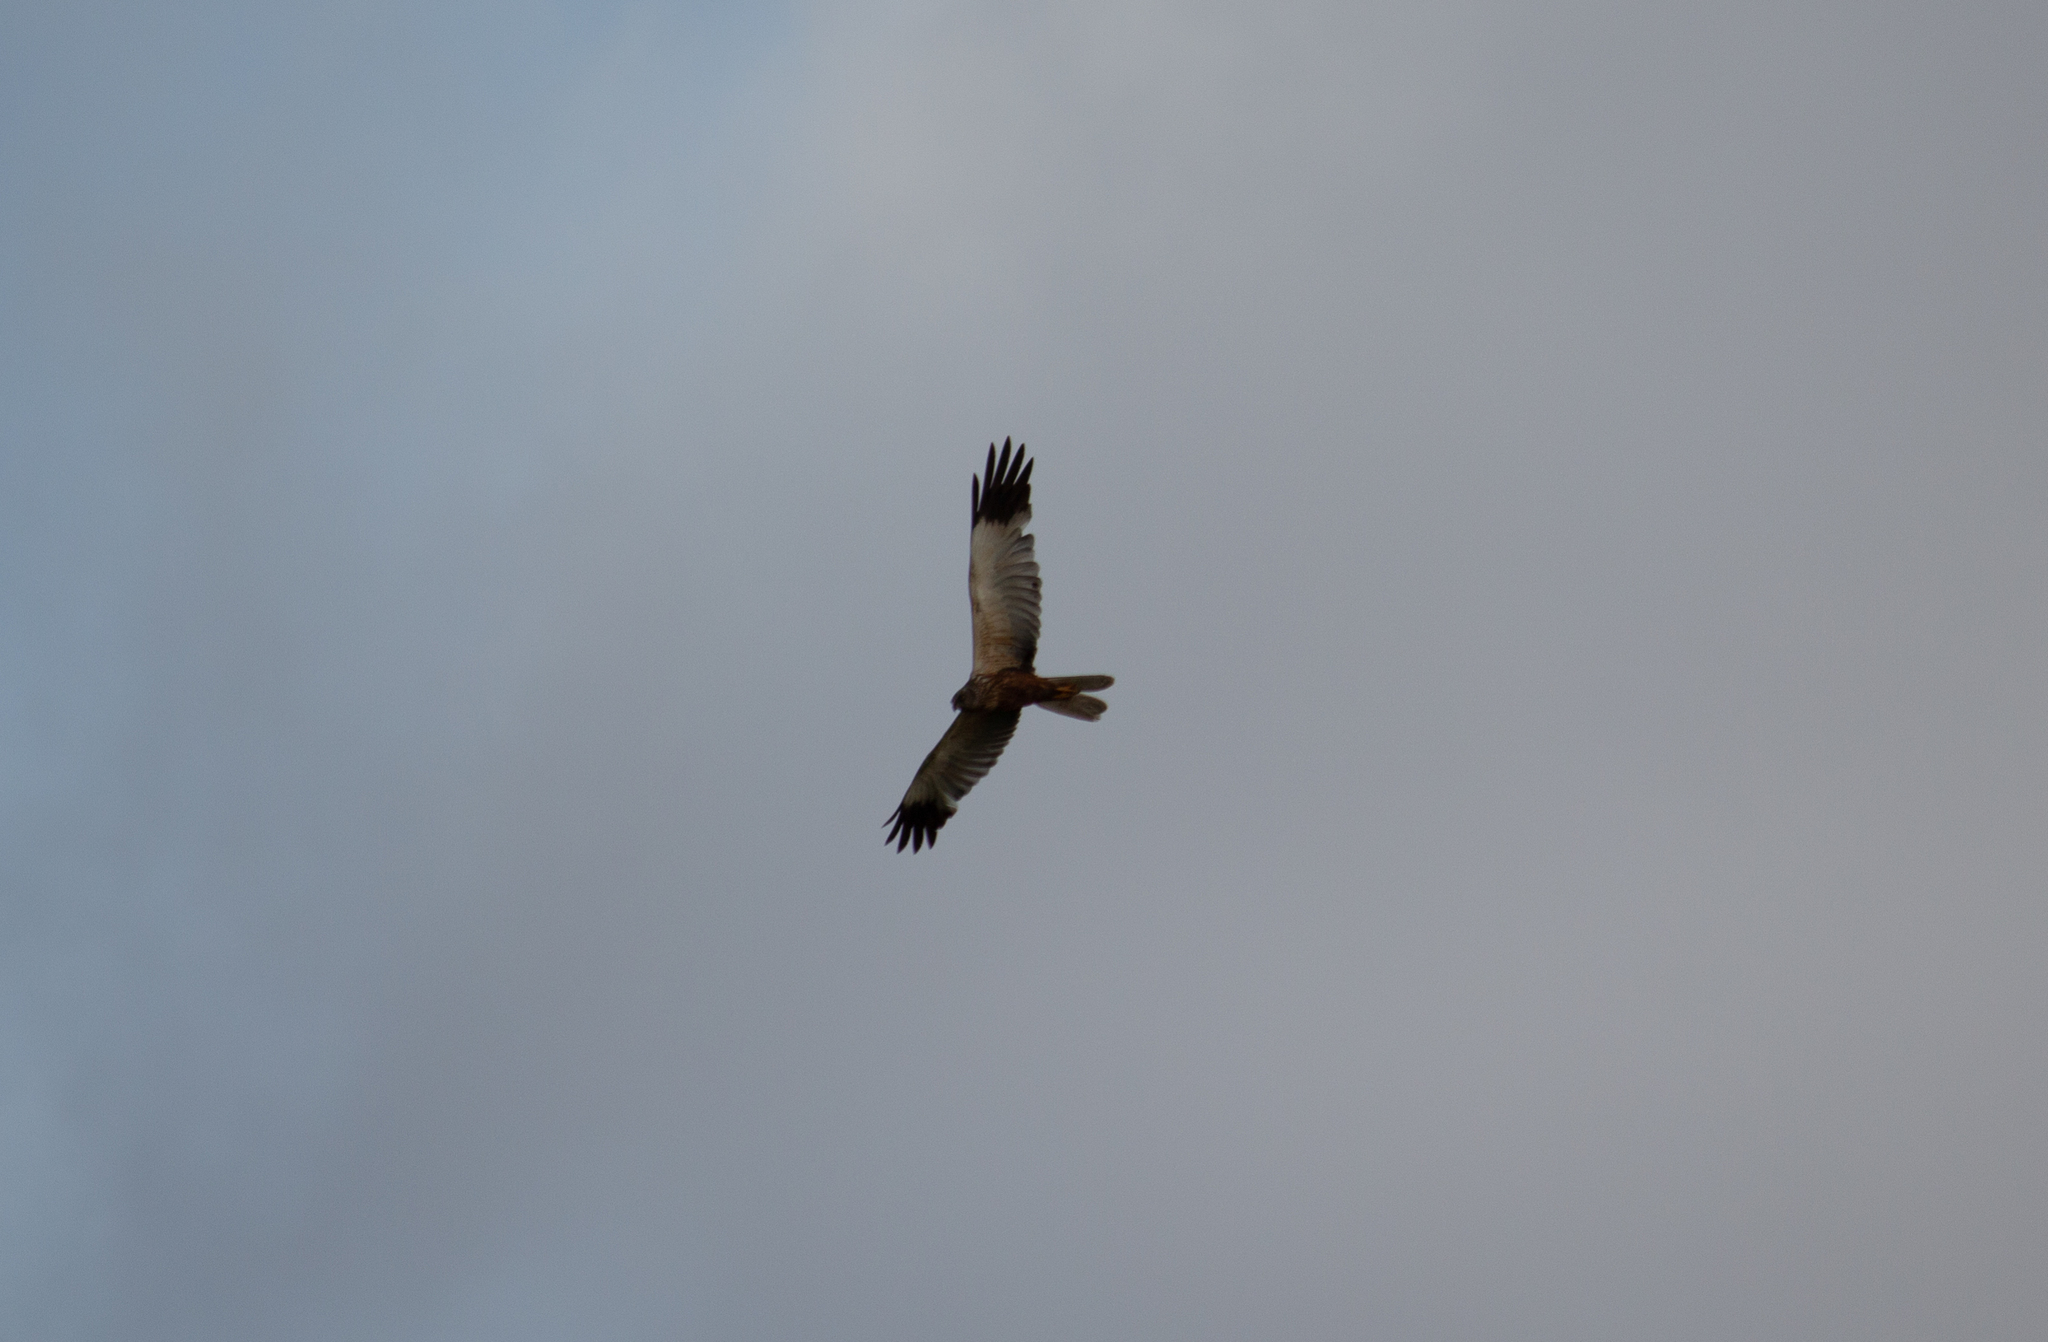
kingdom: Animalia
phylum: Chordata
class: Aves
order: Accipitriformes
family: Accipitridae
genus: Circus
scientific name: Circus aeruginosus
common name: Western marsh harrier
